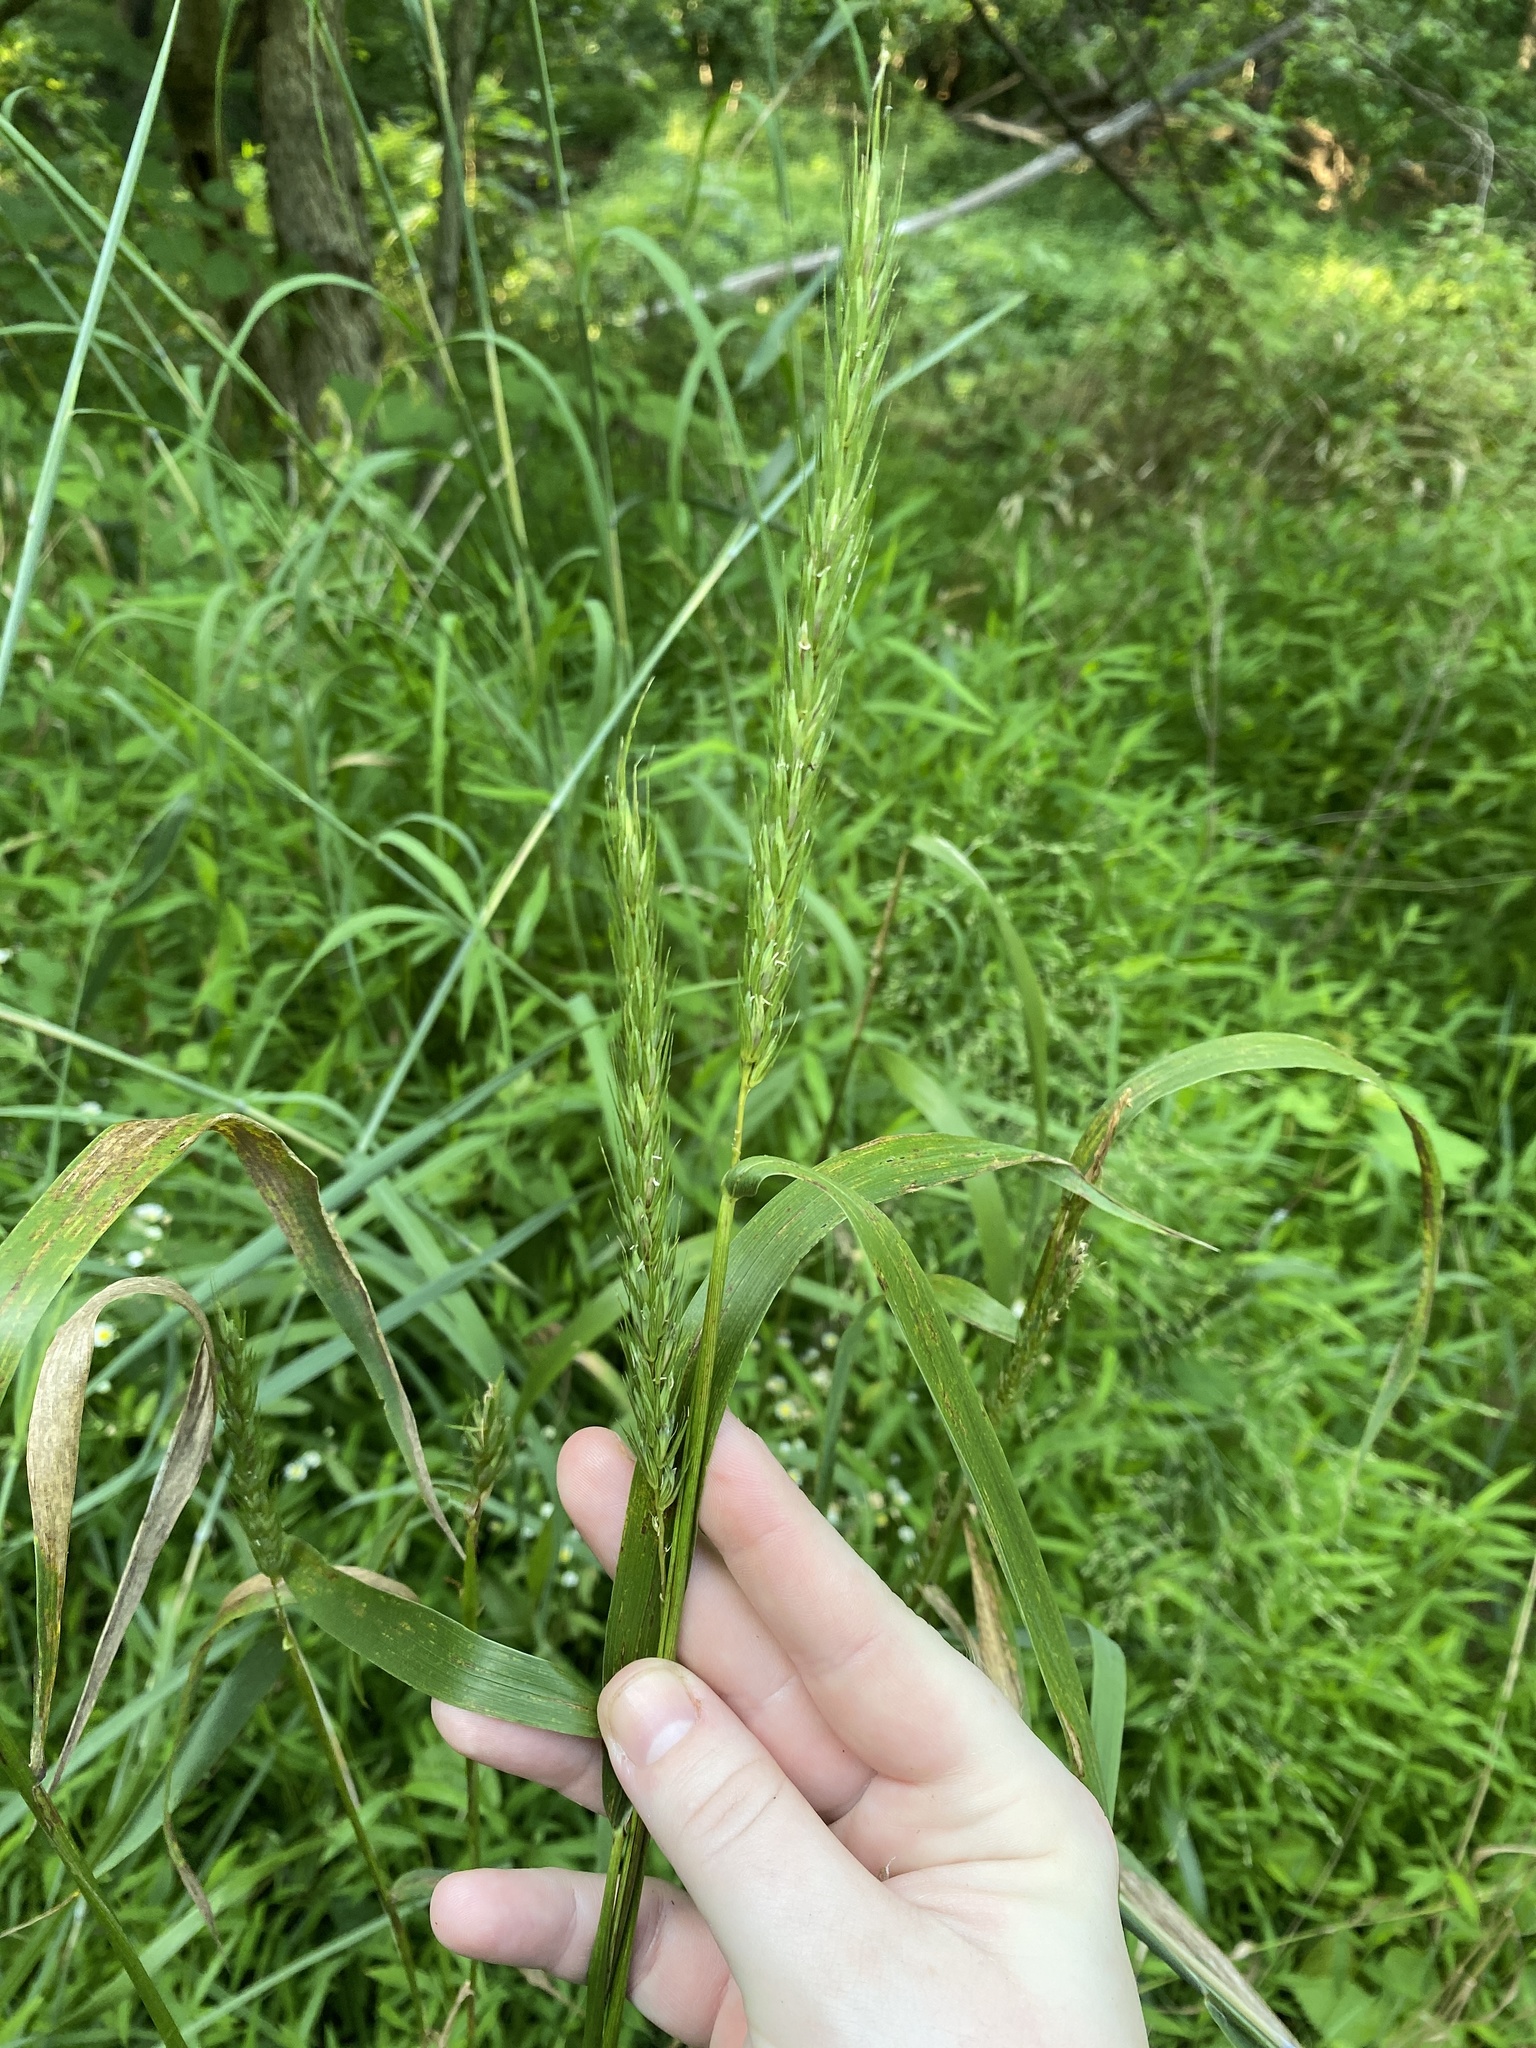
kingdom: Plantae
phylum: Tracheophyta
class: Liliopsida
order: Poales
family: Poaceae
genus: Elymus
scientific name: Elymus virginicus
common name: Common eastern wildrye
